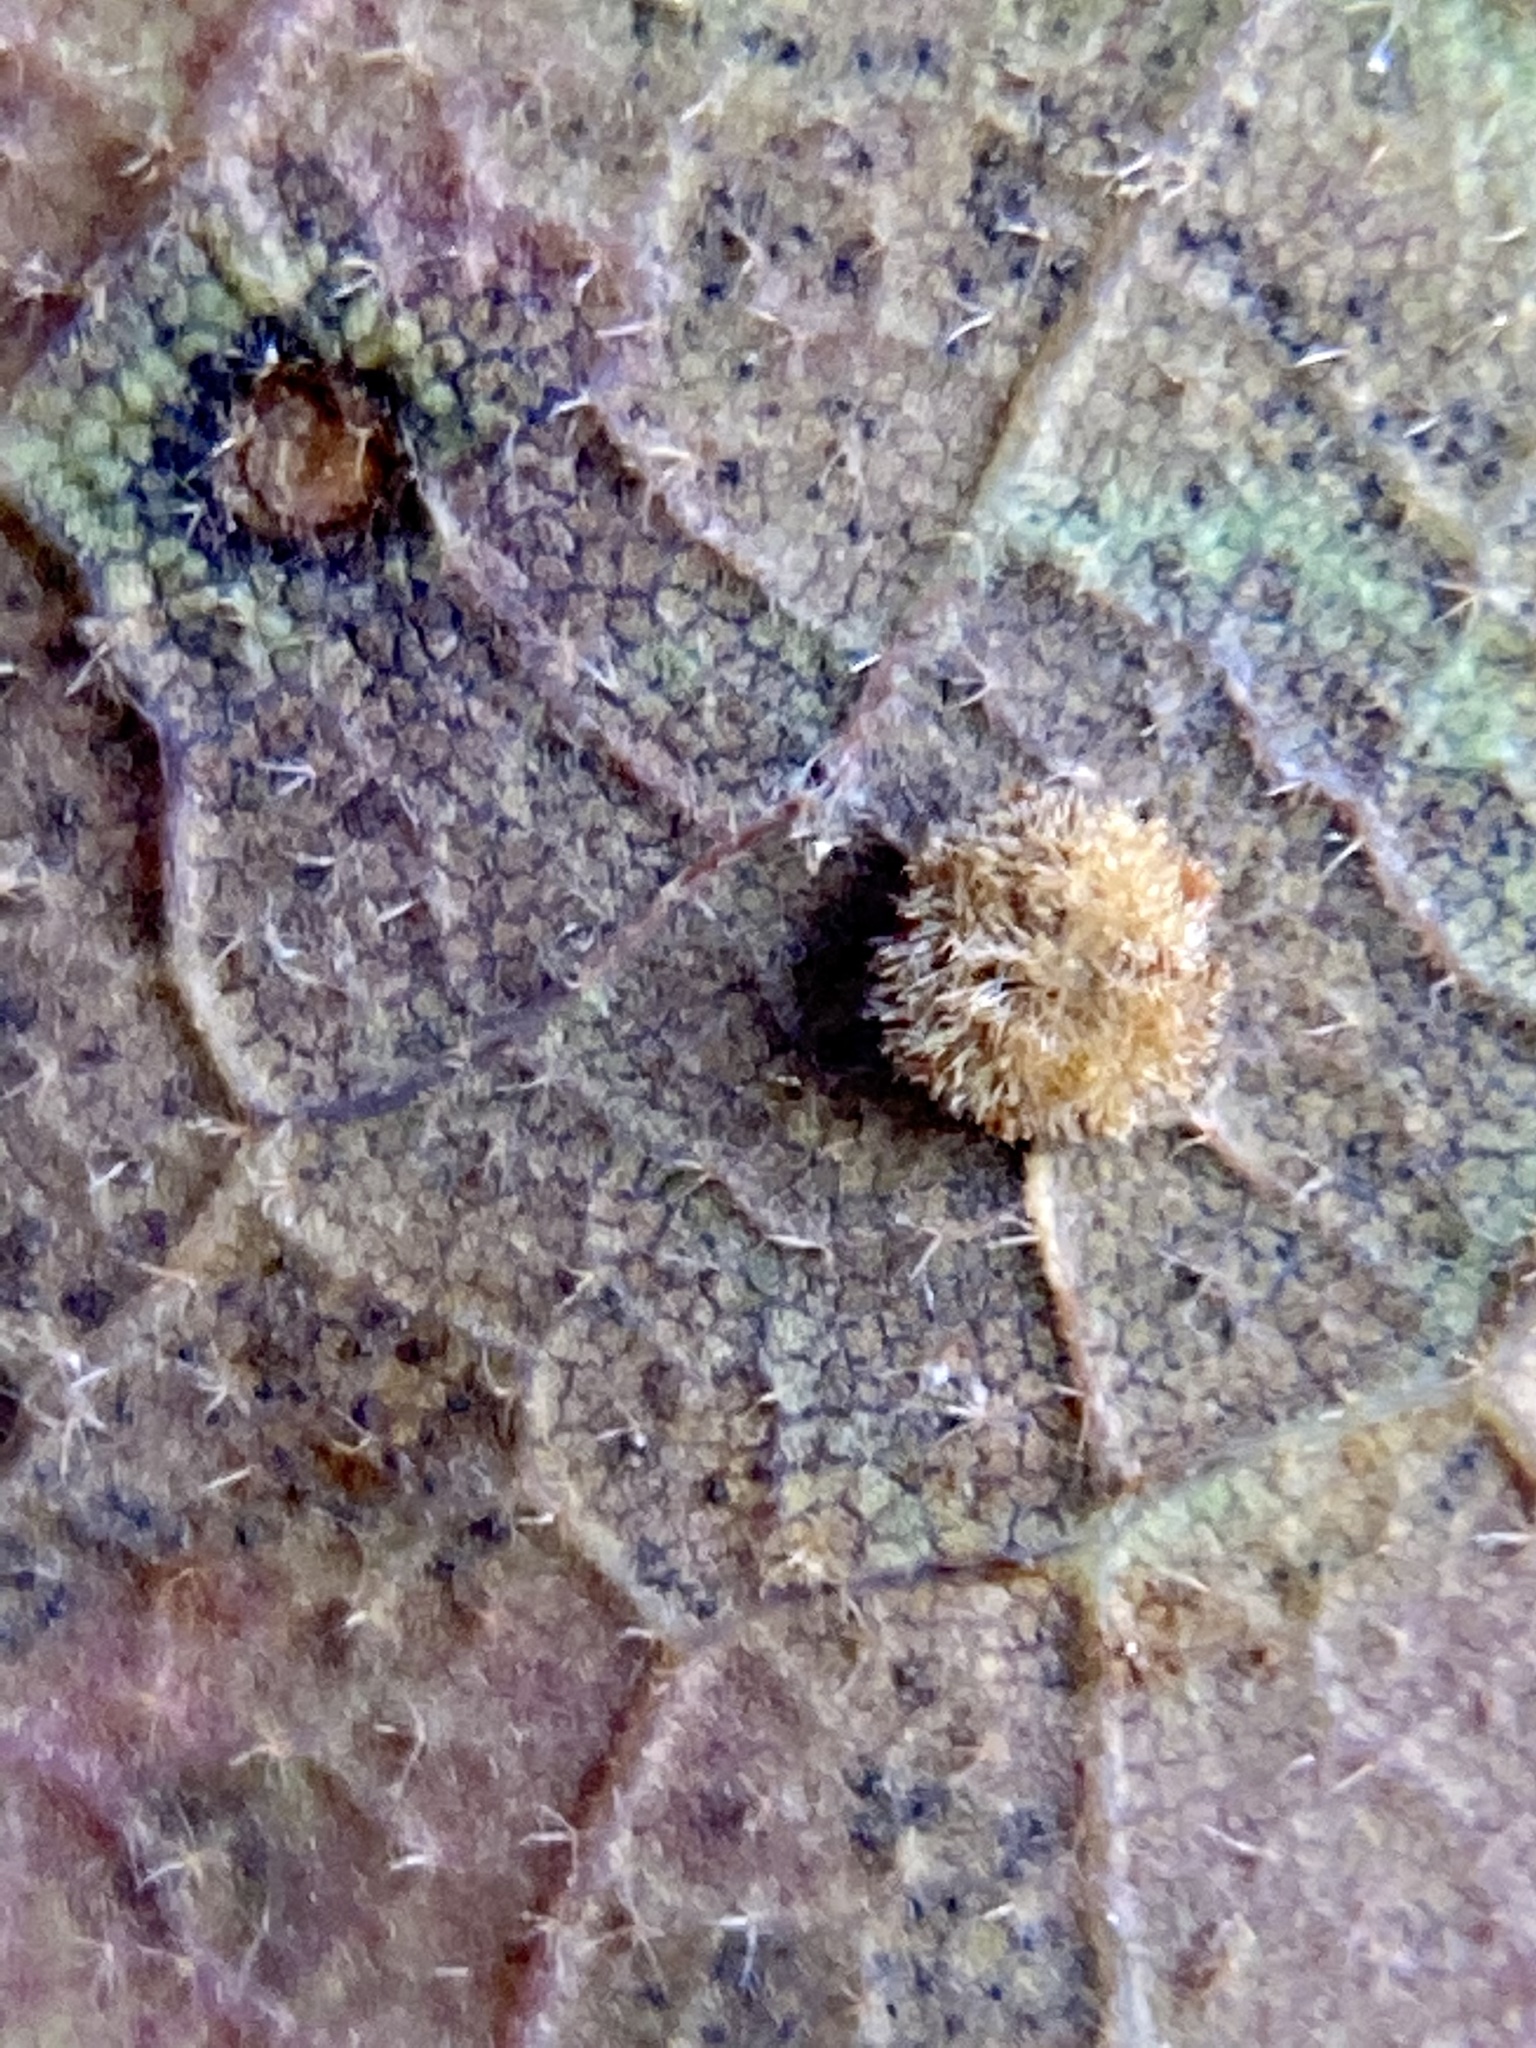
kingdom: Animalia
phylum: Arthropoda
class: Insecta
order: Hymenoptera
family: Cynipidae
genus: Neuroterus
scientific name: Neuroterus saltarius
